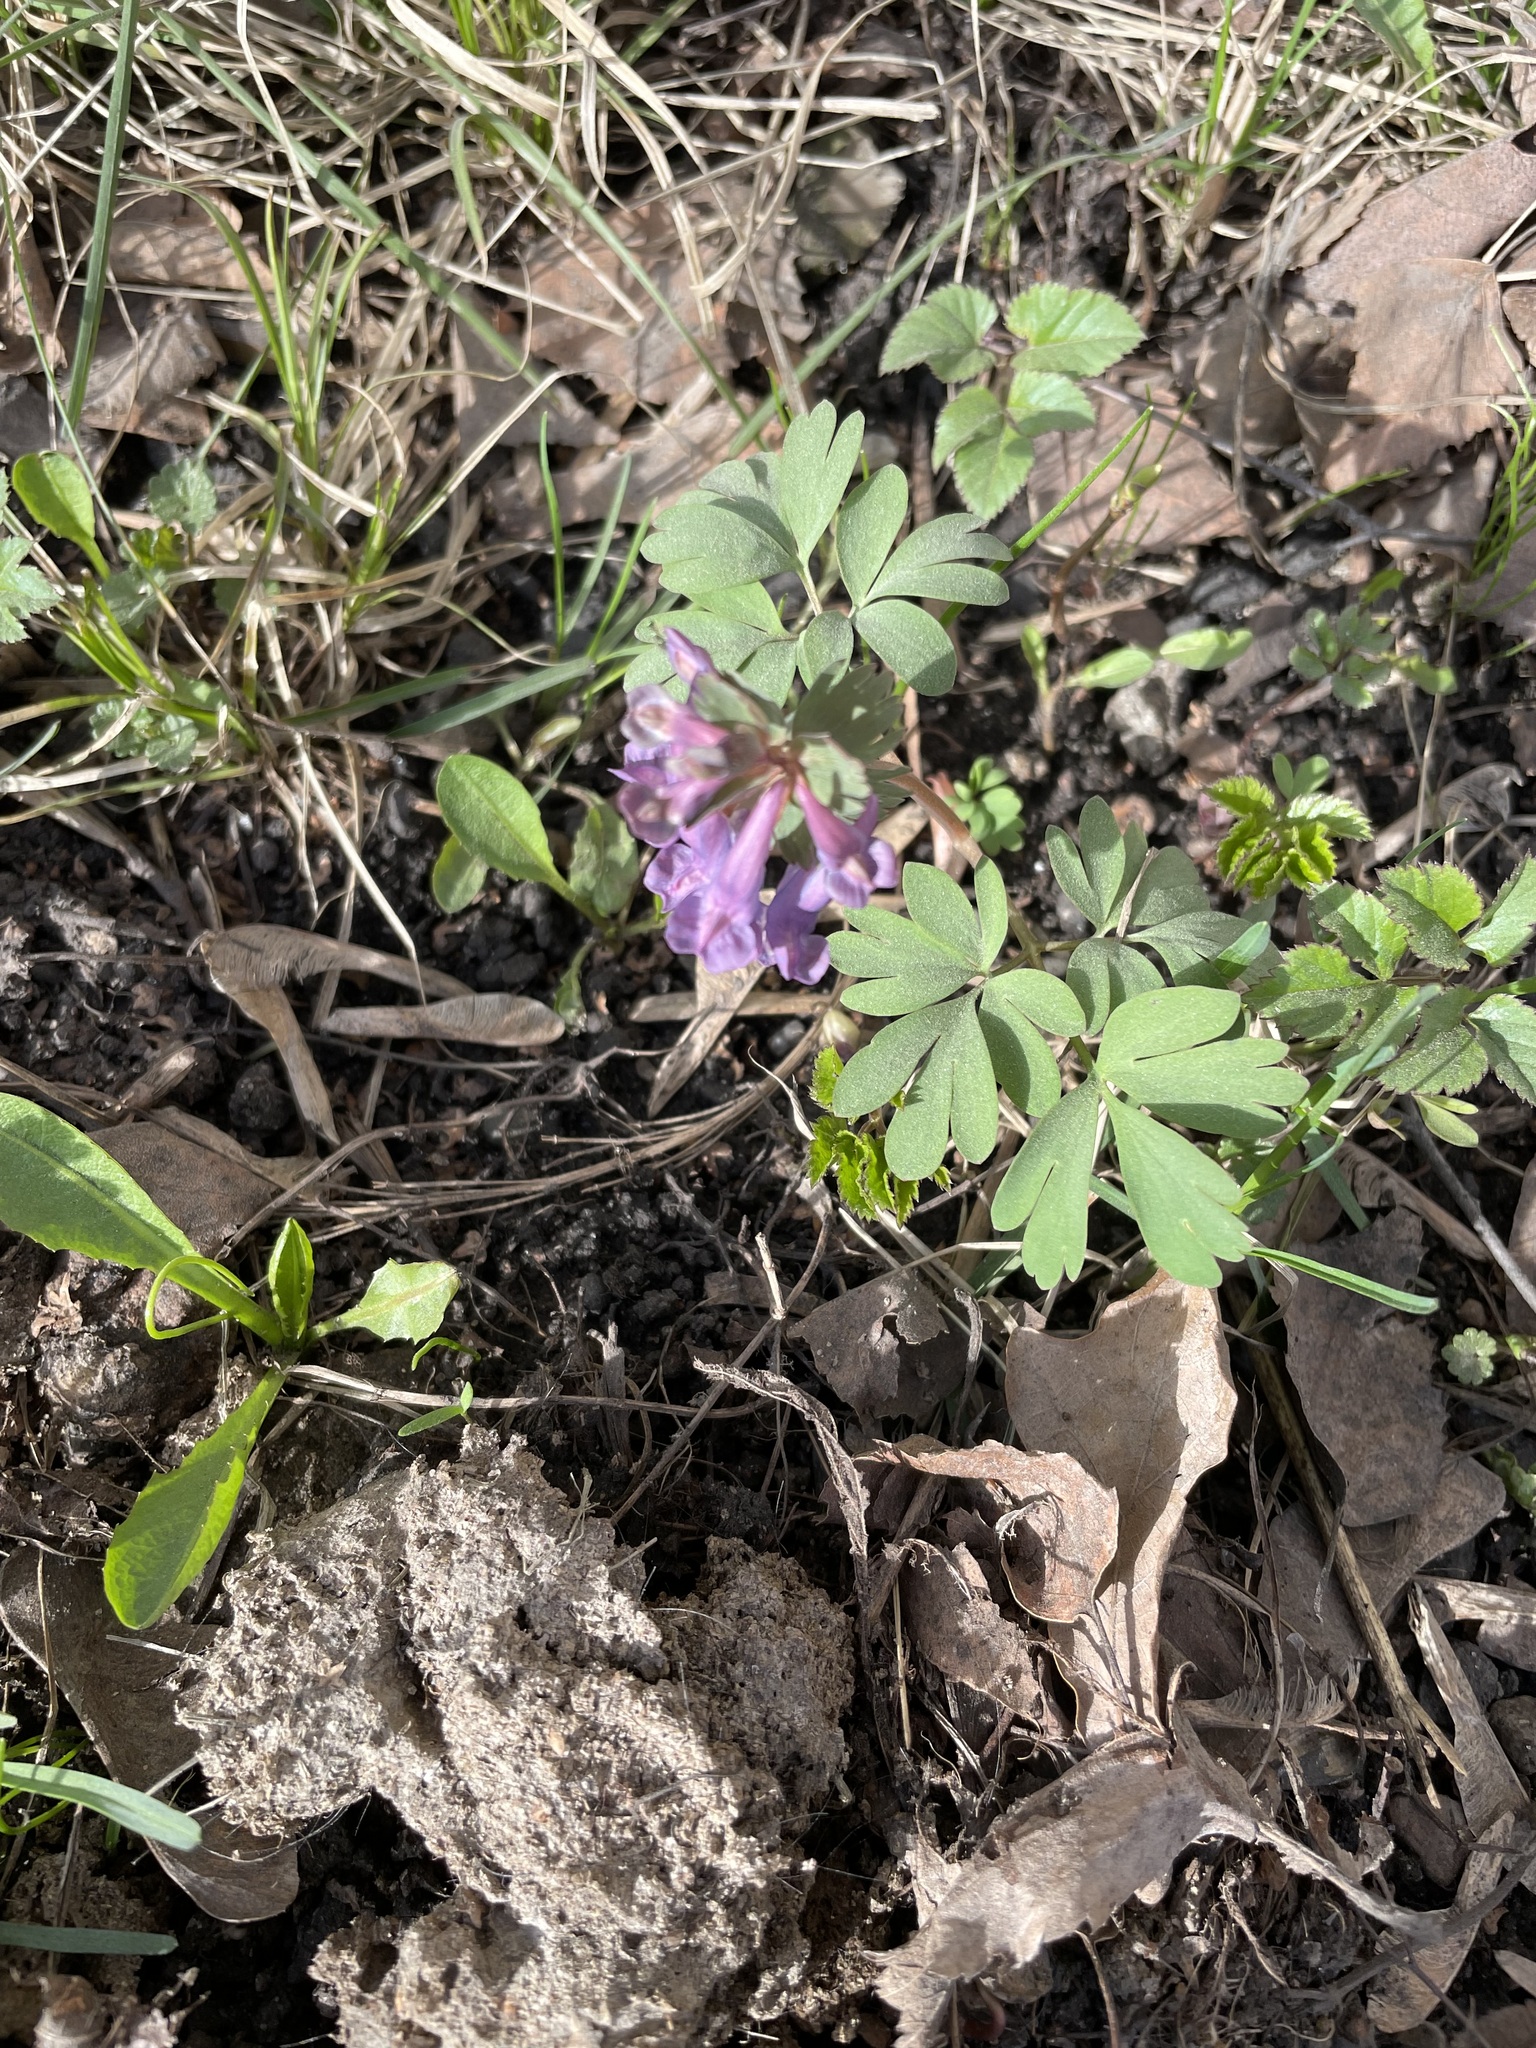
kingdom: Plantae
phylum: Tracheophyta
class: Magnoliopsida
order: Ranunculales
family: Papaveraceae
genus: Corydalis
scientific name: Corydalis solida
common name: Bird-in-a-bush
